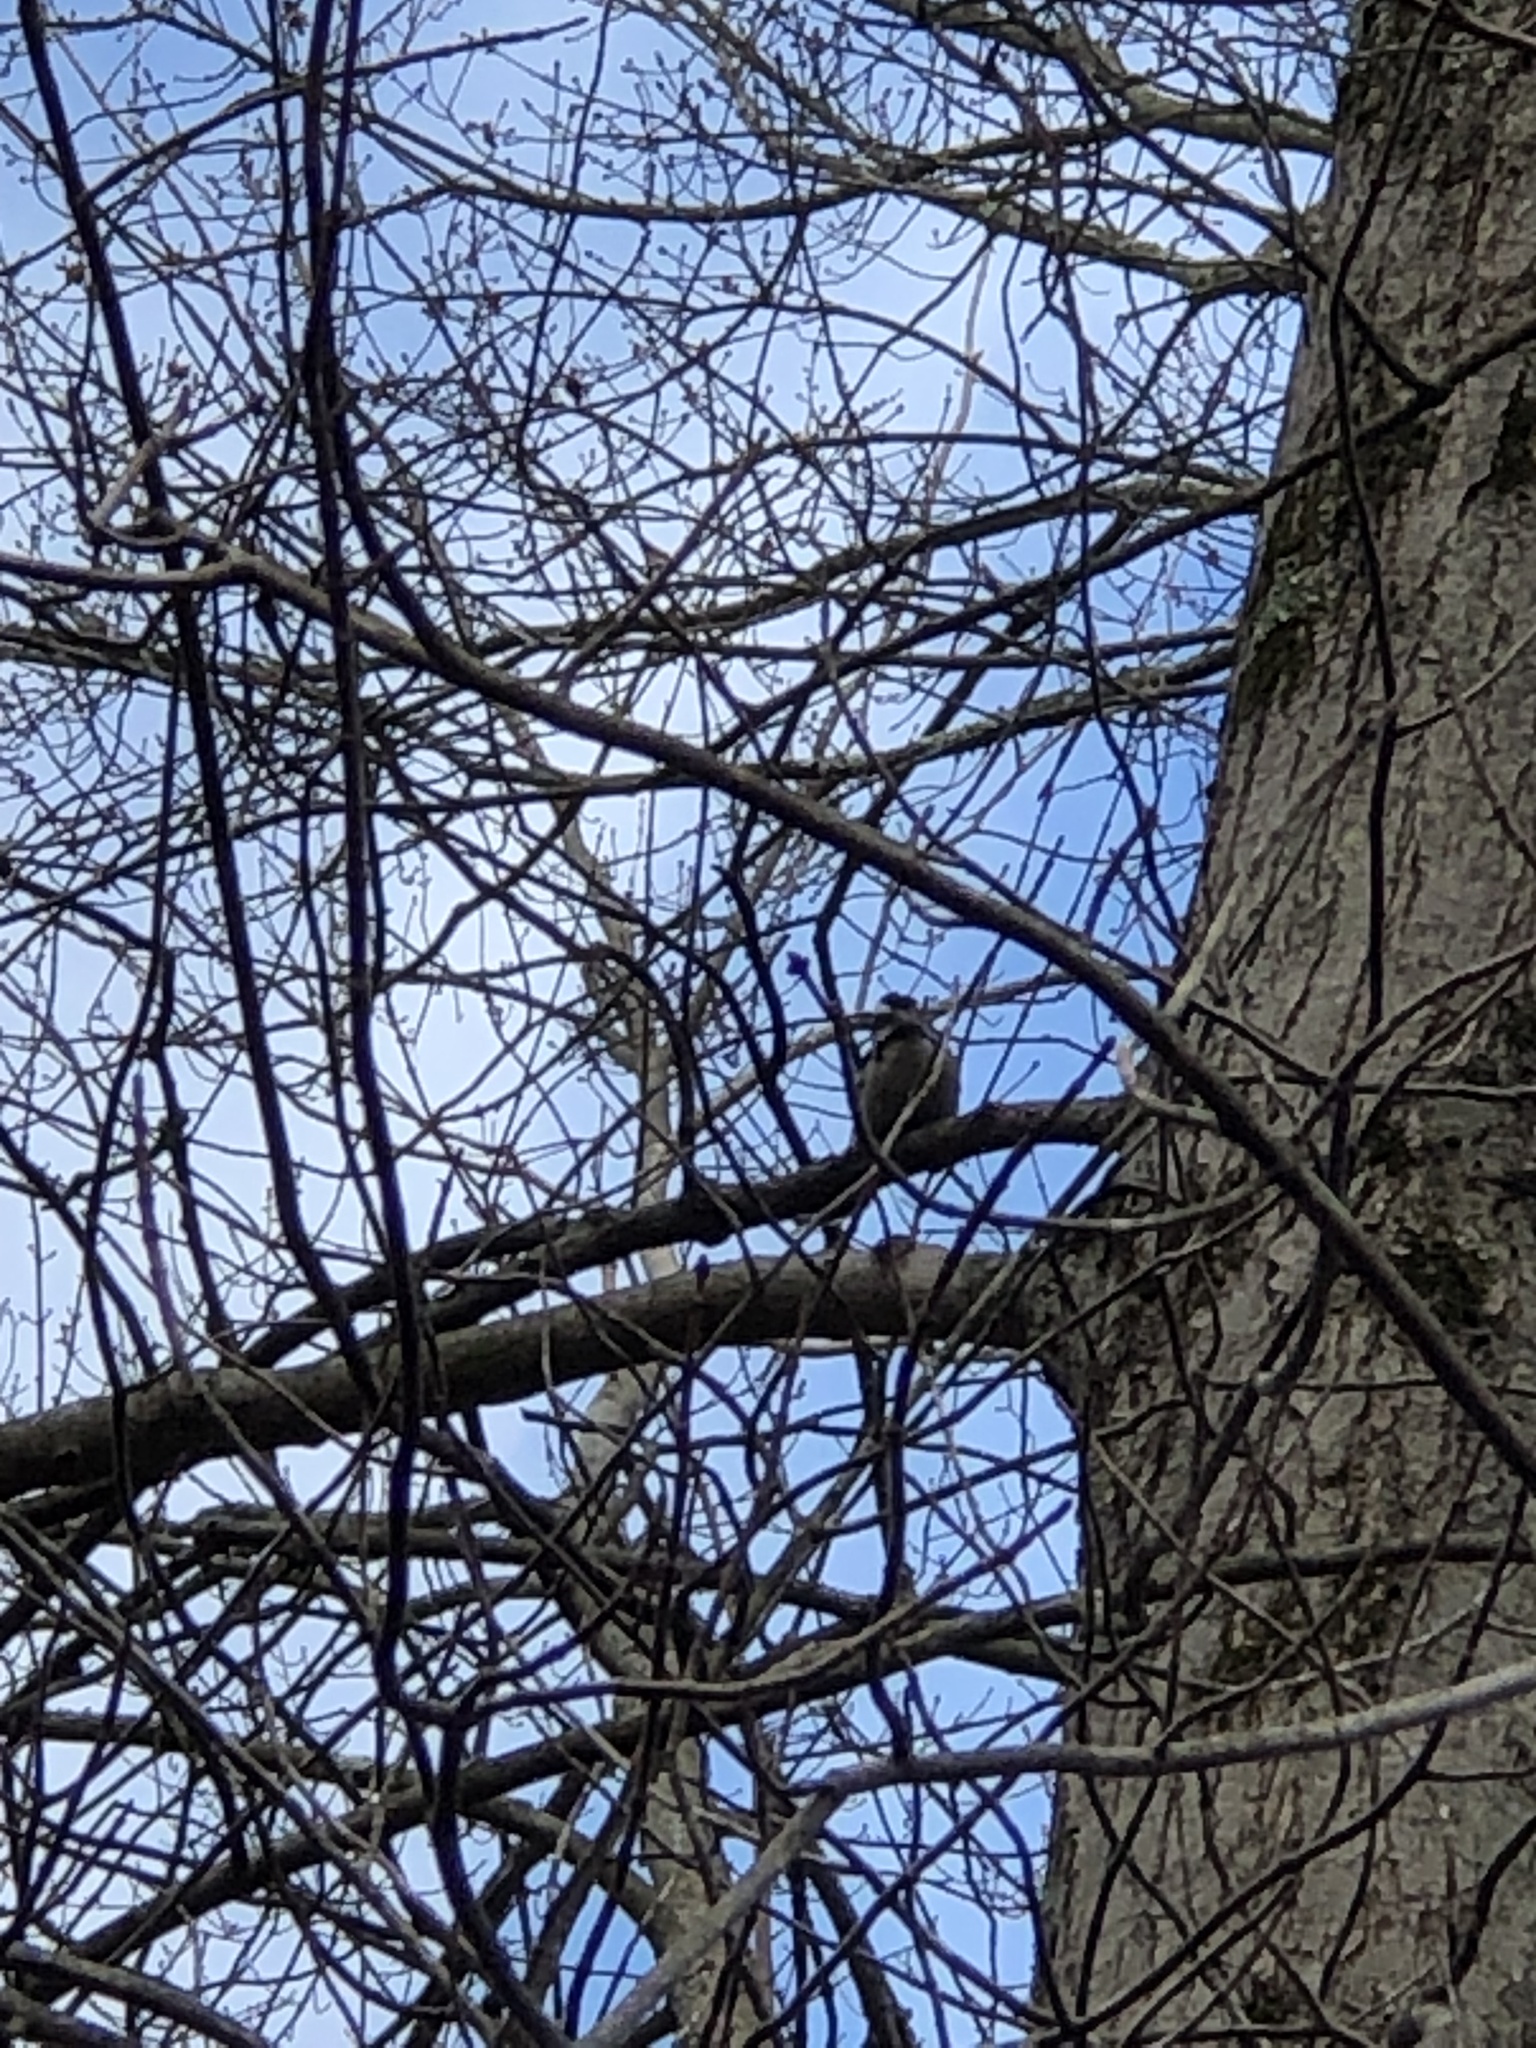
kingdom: Animalia
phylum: Chordata
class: Aves
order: Piciformes
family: Picidae
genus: Dryobates
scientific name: Dryobates pubescens
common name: Downy woodpecker
